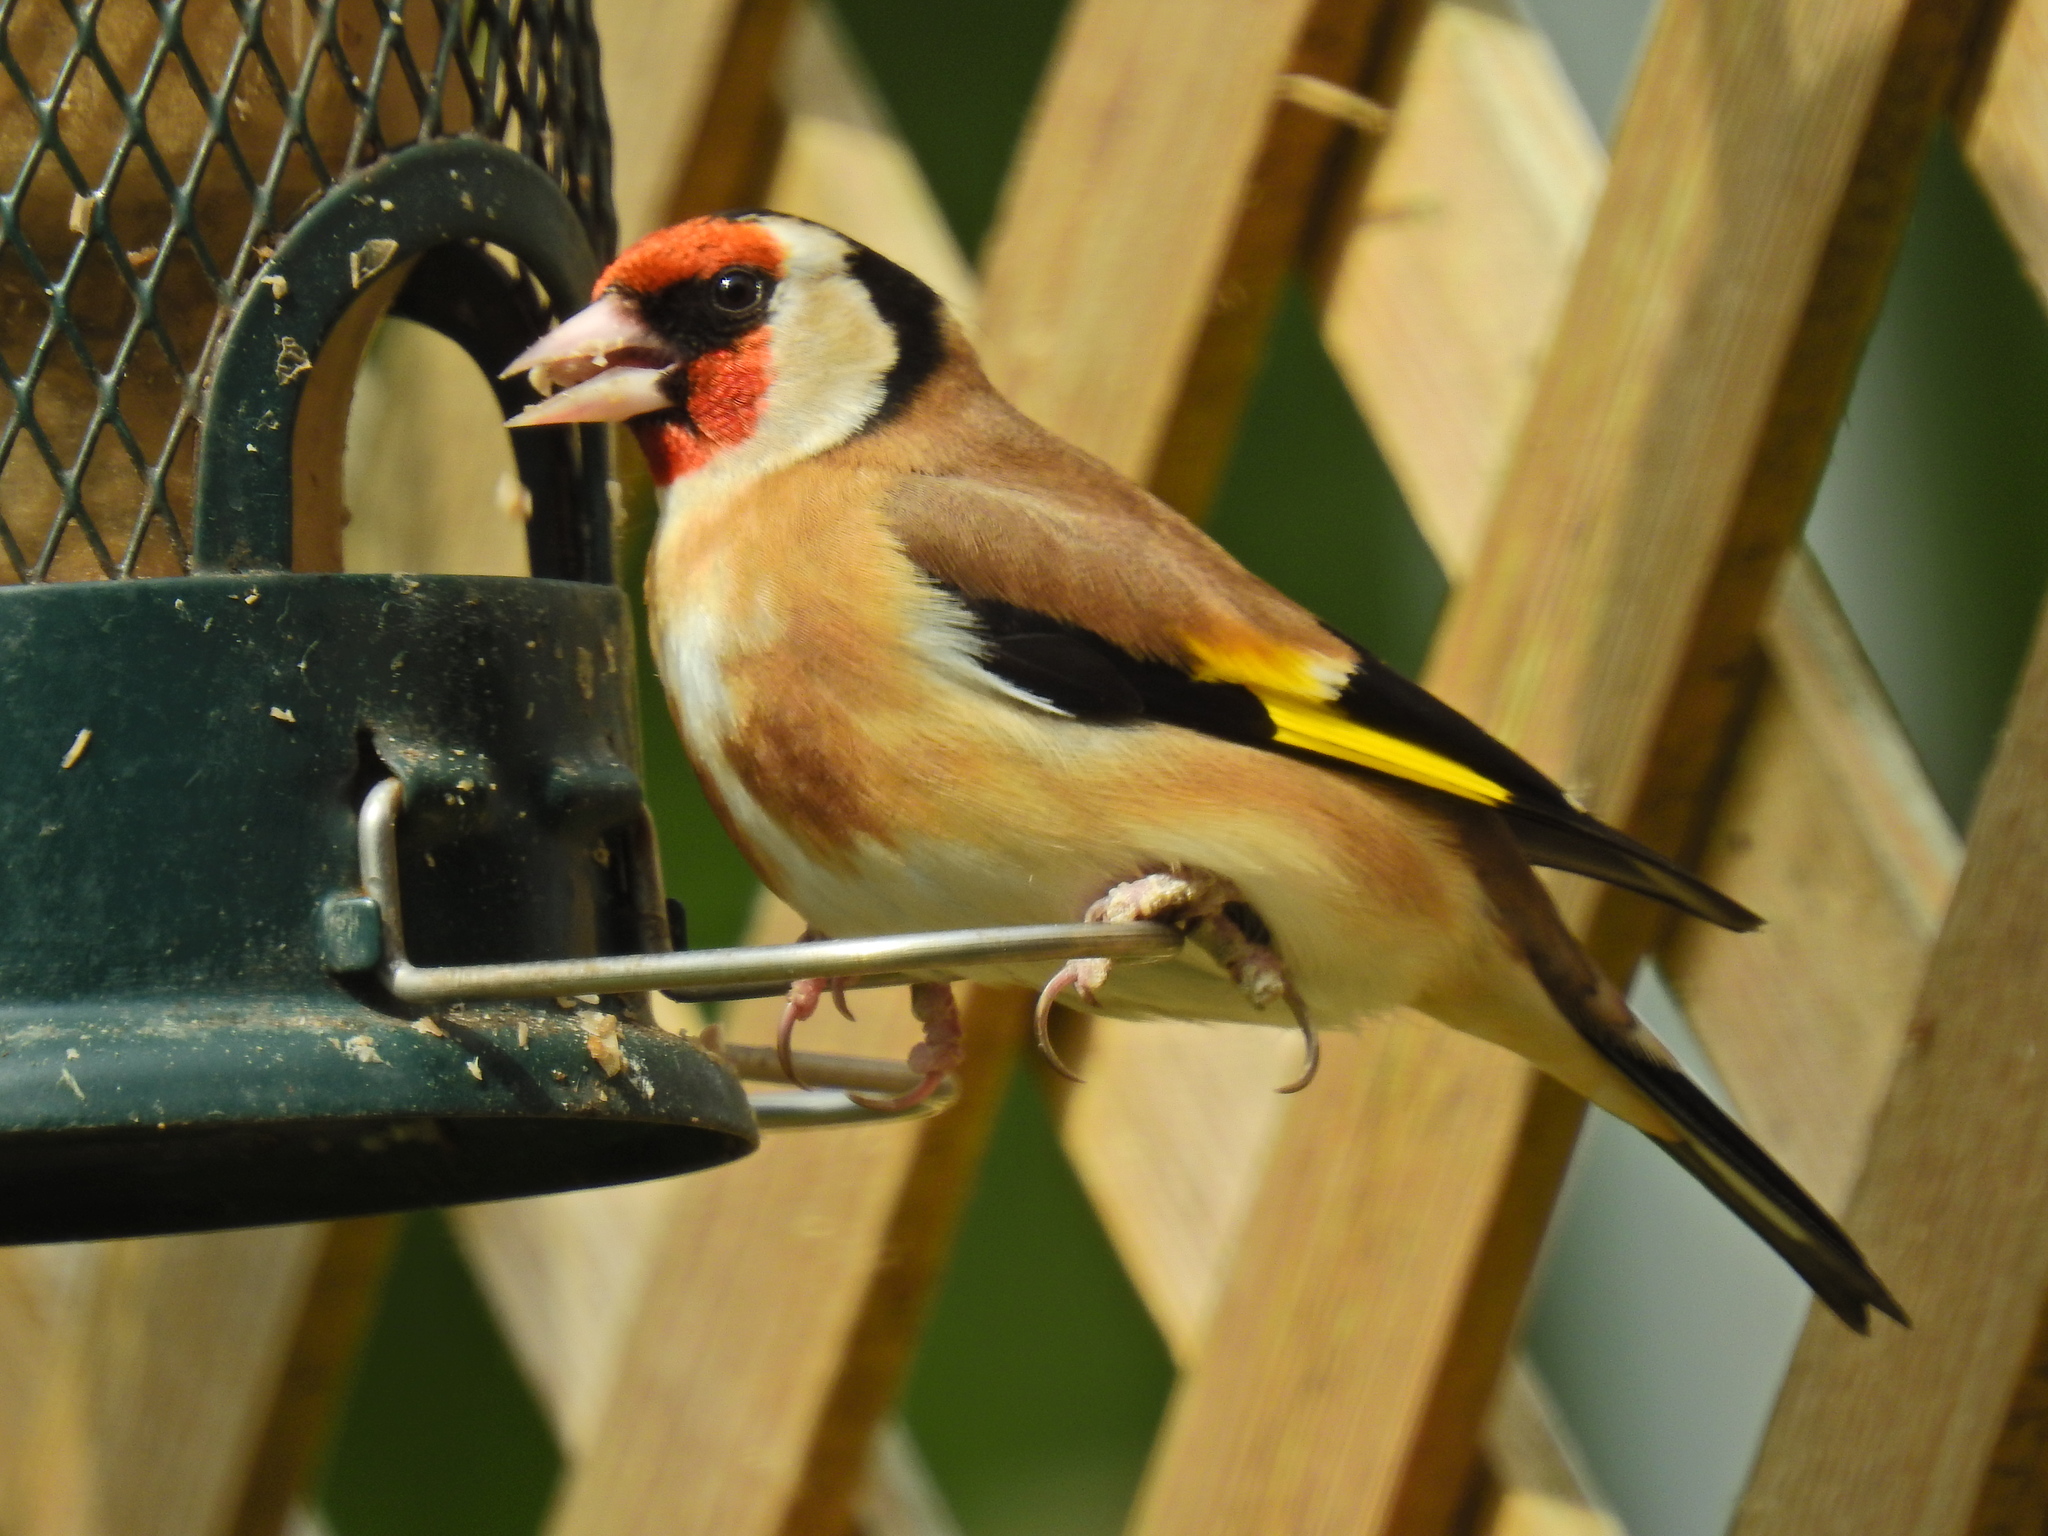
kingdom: Animalia
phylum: Chordata
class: Aves
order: Passeriformes
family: Fringillidae
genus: Carduelis
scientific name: Carduelis carduelis
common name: European goldfinch
